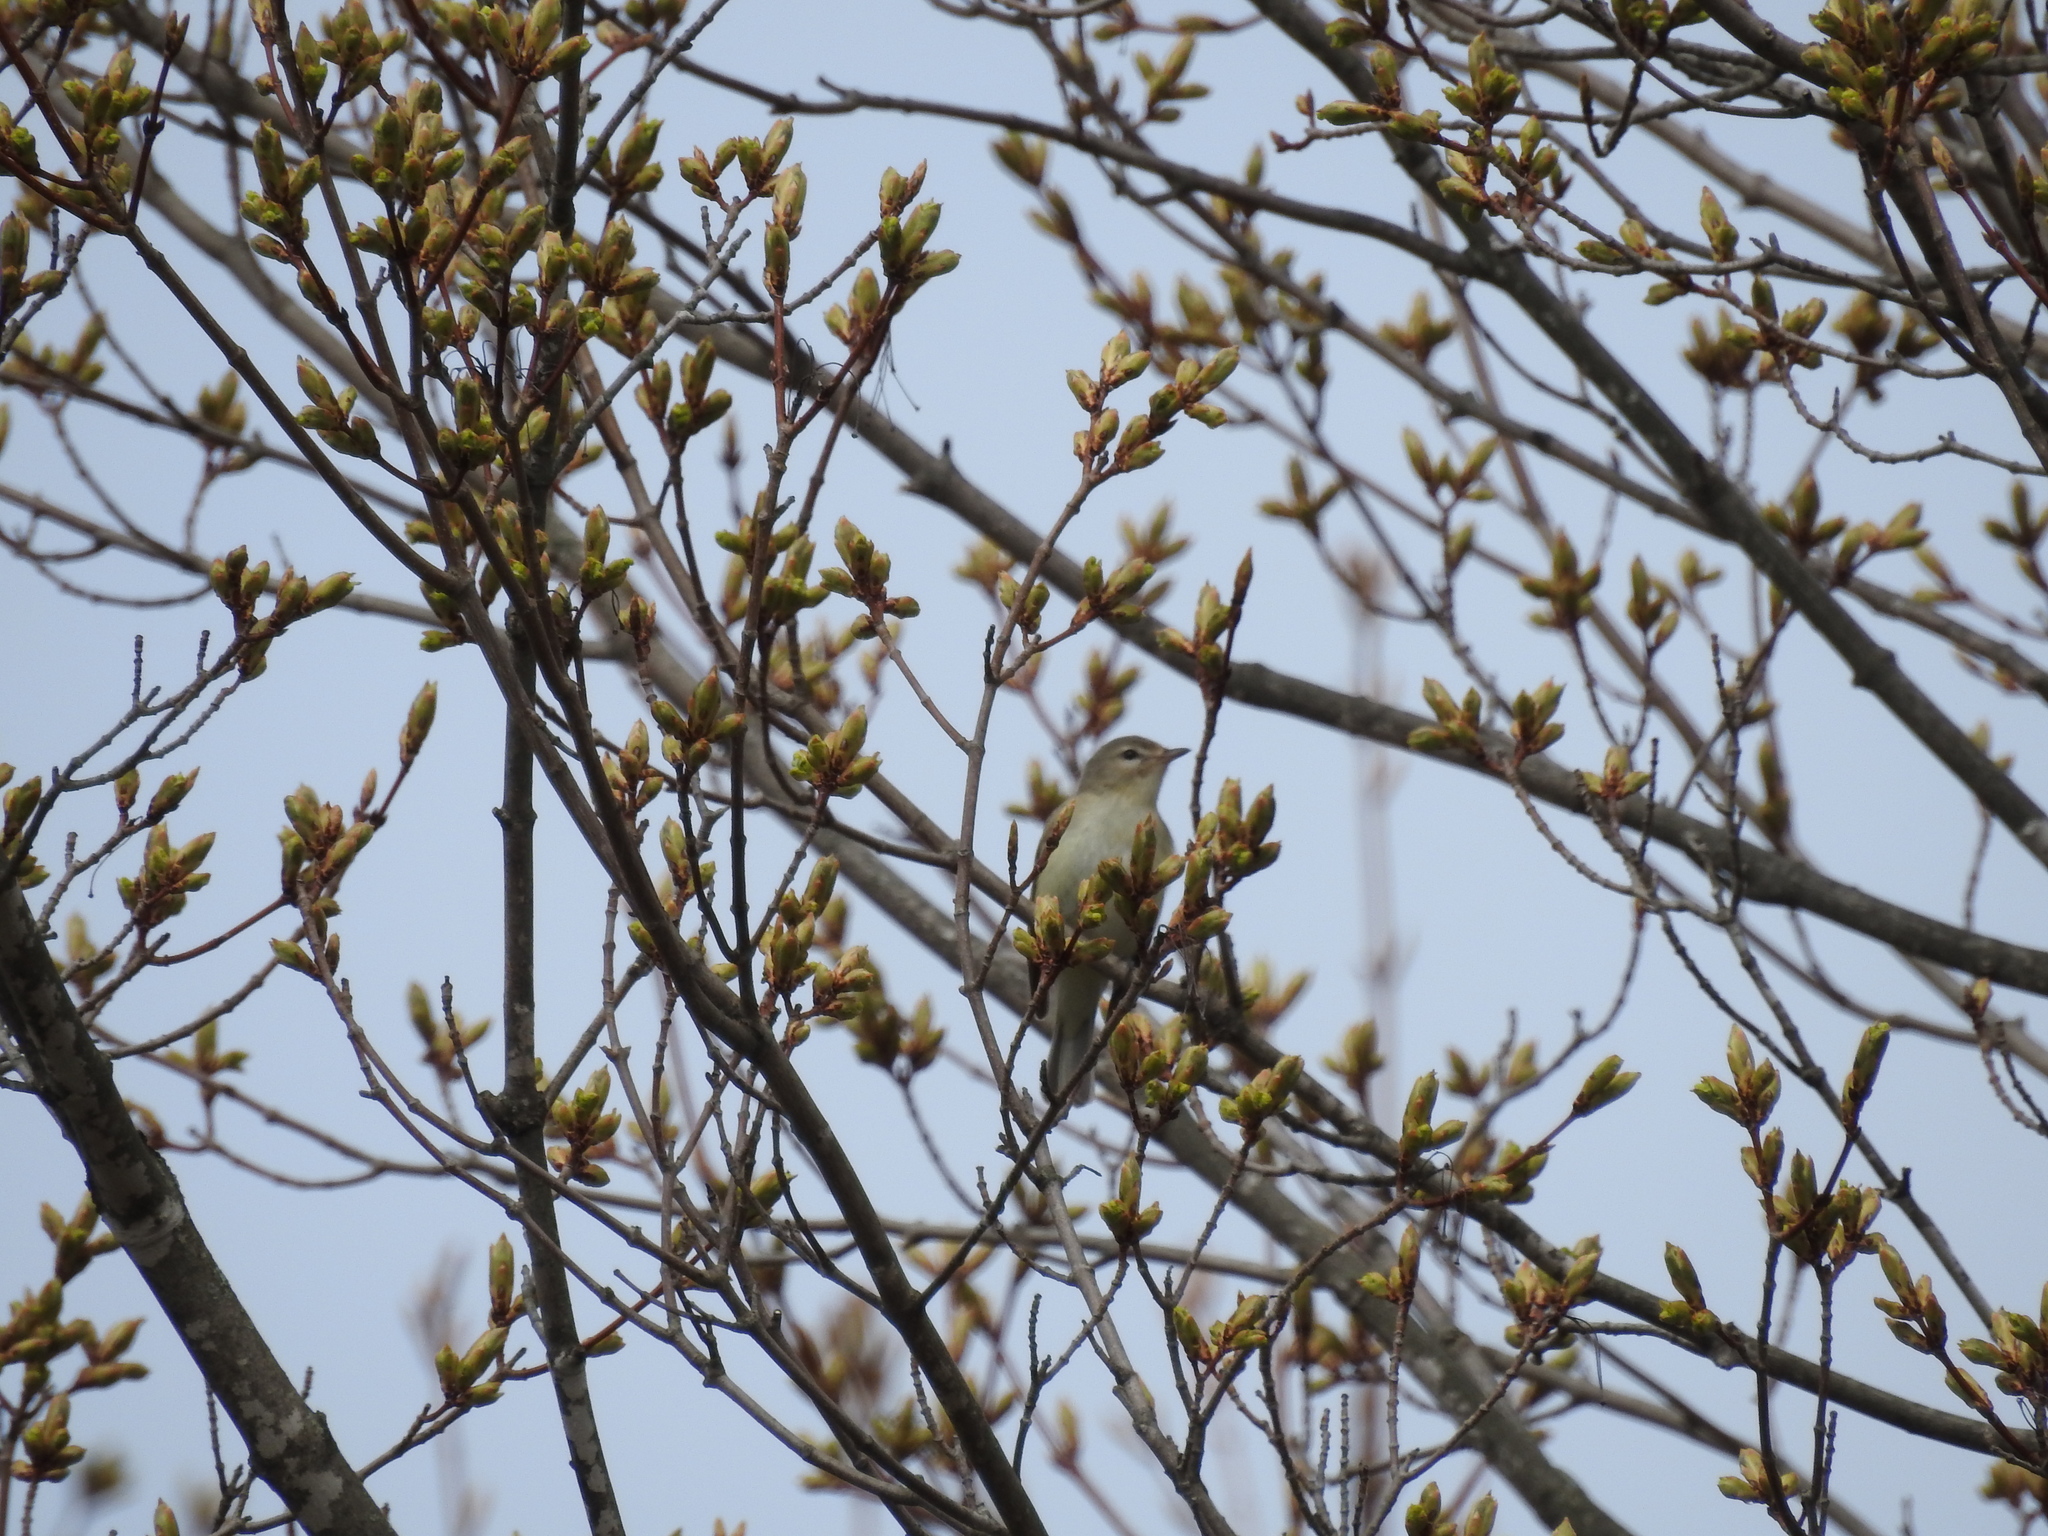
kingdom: Animalia
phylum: Chordata
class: Aves
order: Passeriformes
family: Vireonidae
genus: Vireo
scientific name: Vireo gilvus
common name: Warbling vireo
